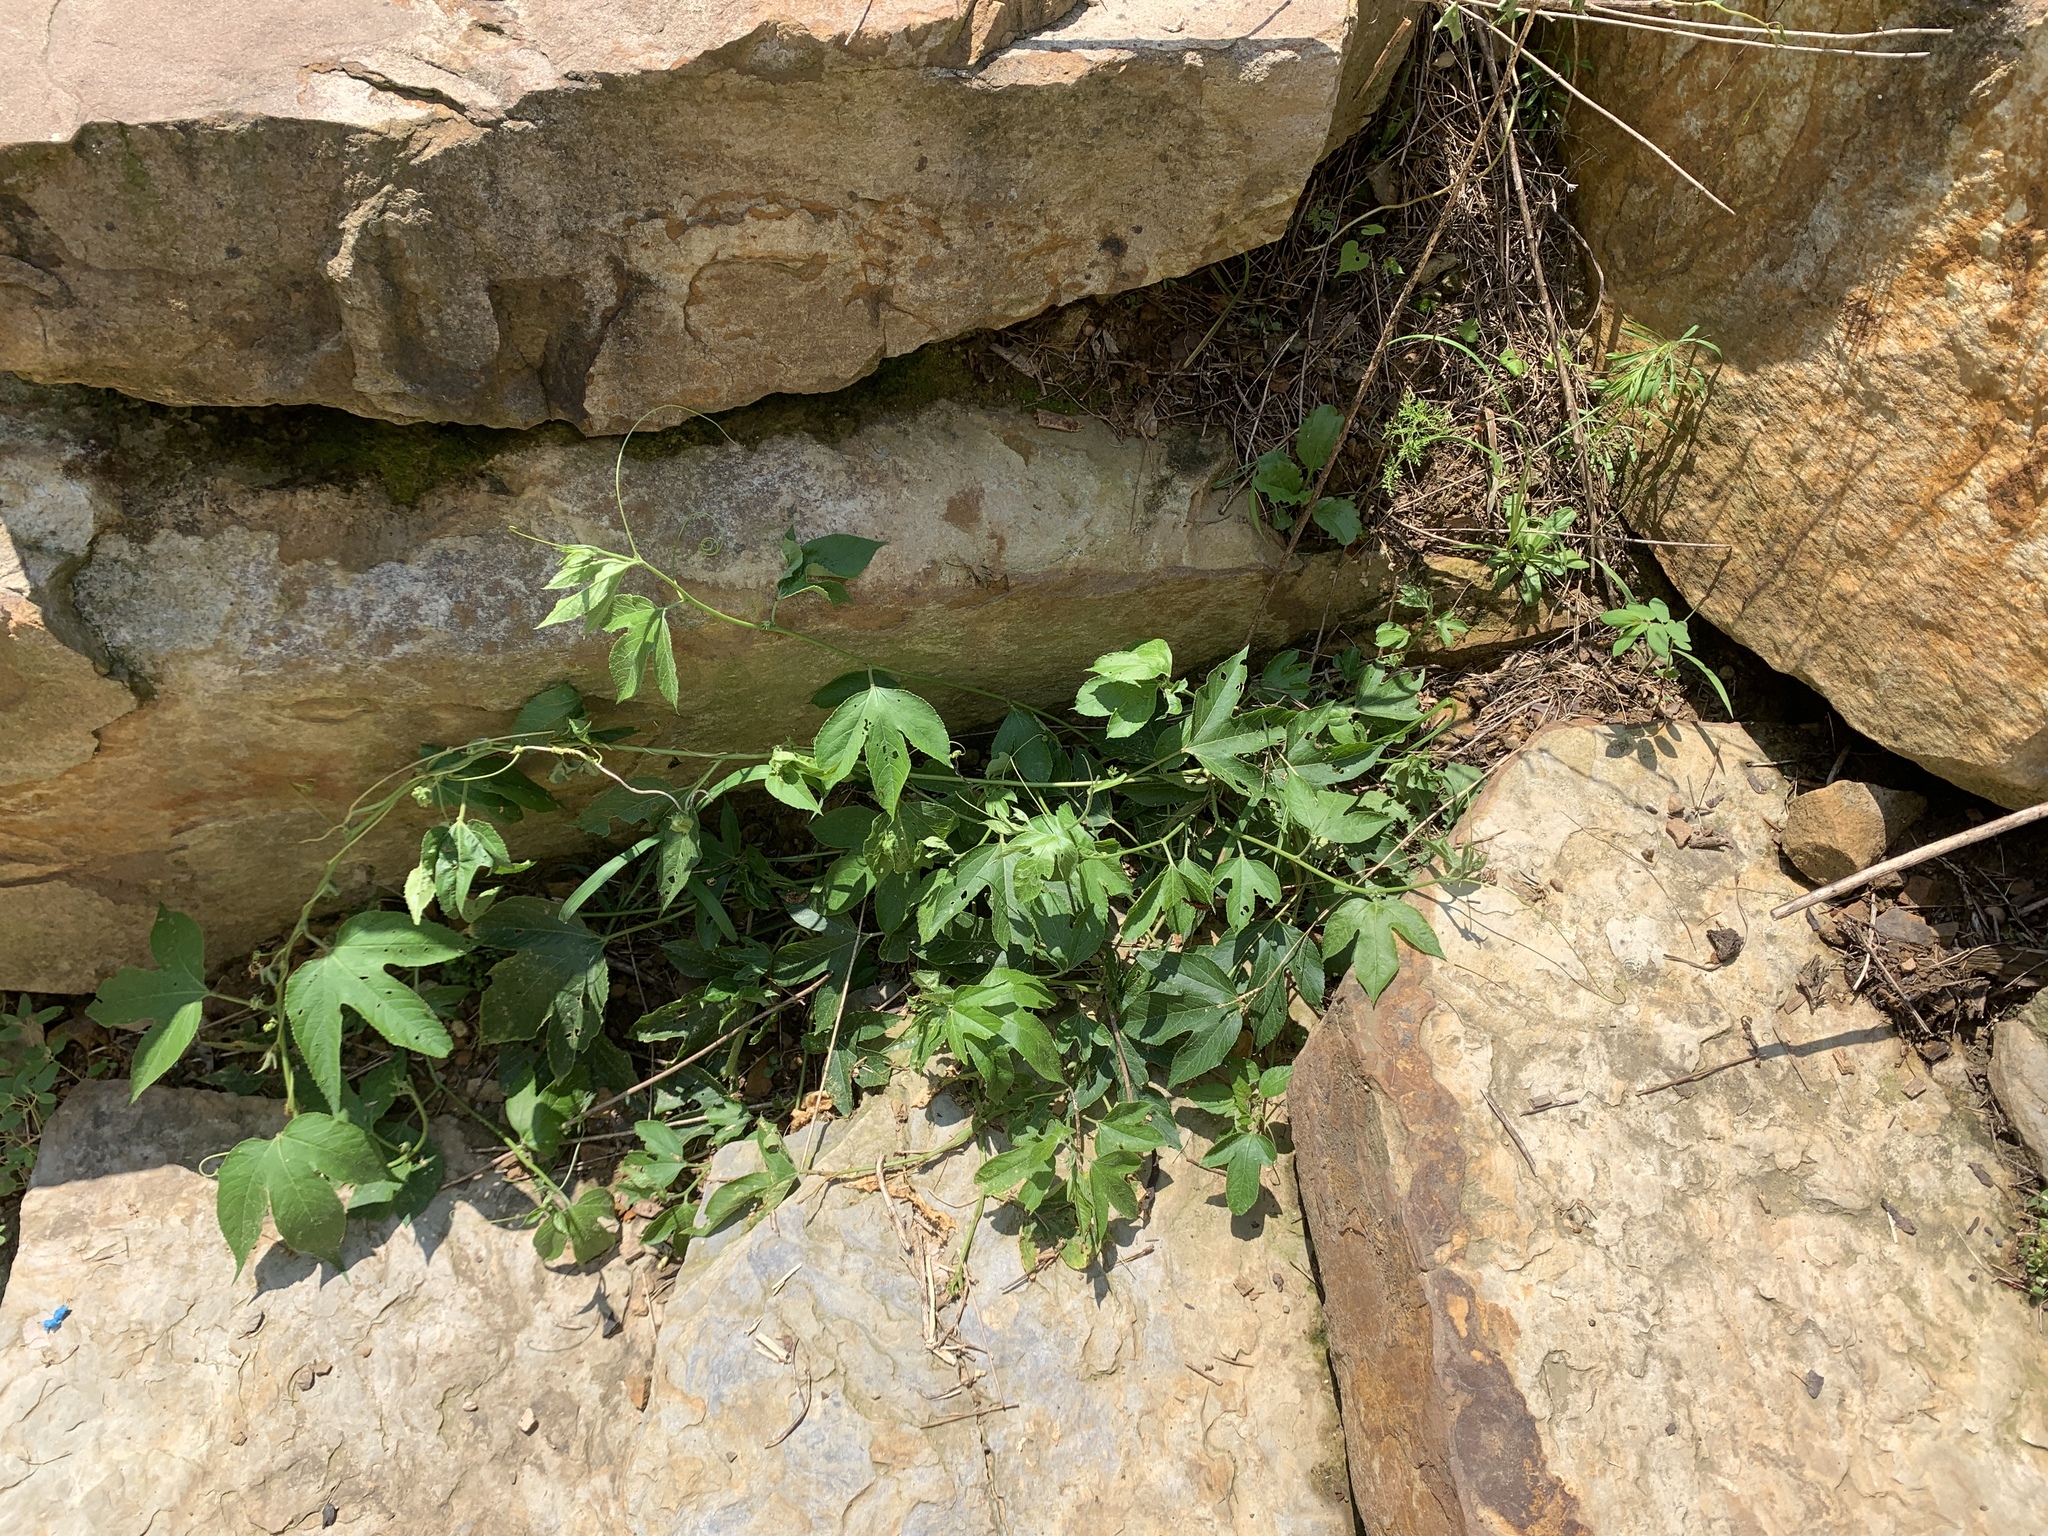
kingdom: Plantae
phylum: Tracheophyta
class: Magnoliopsida
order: Malpighiales
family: Passifloraceae
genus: Passiflora
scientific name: Passiflora incarnata
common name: Apricot-vine
